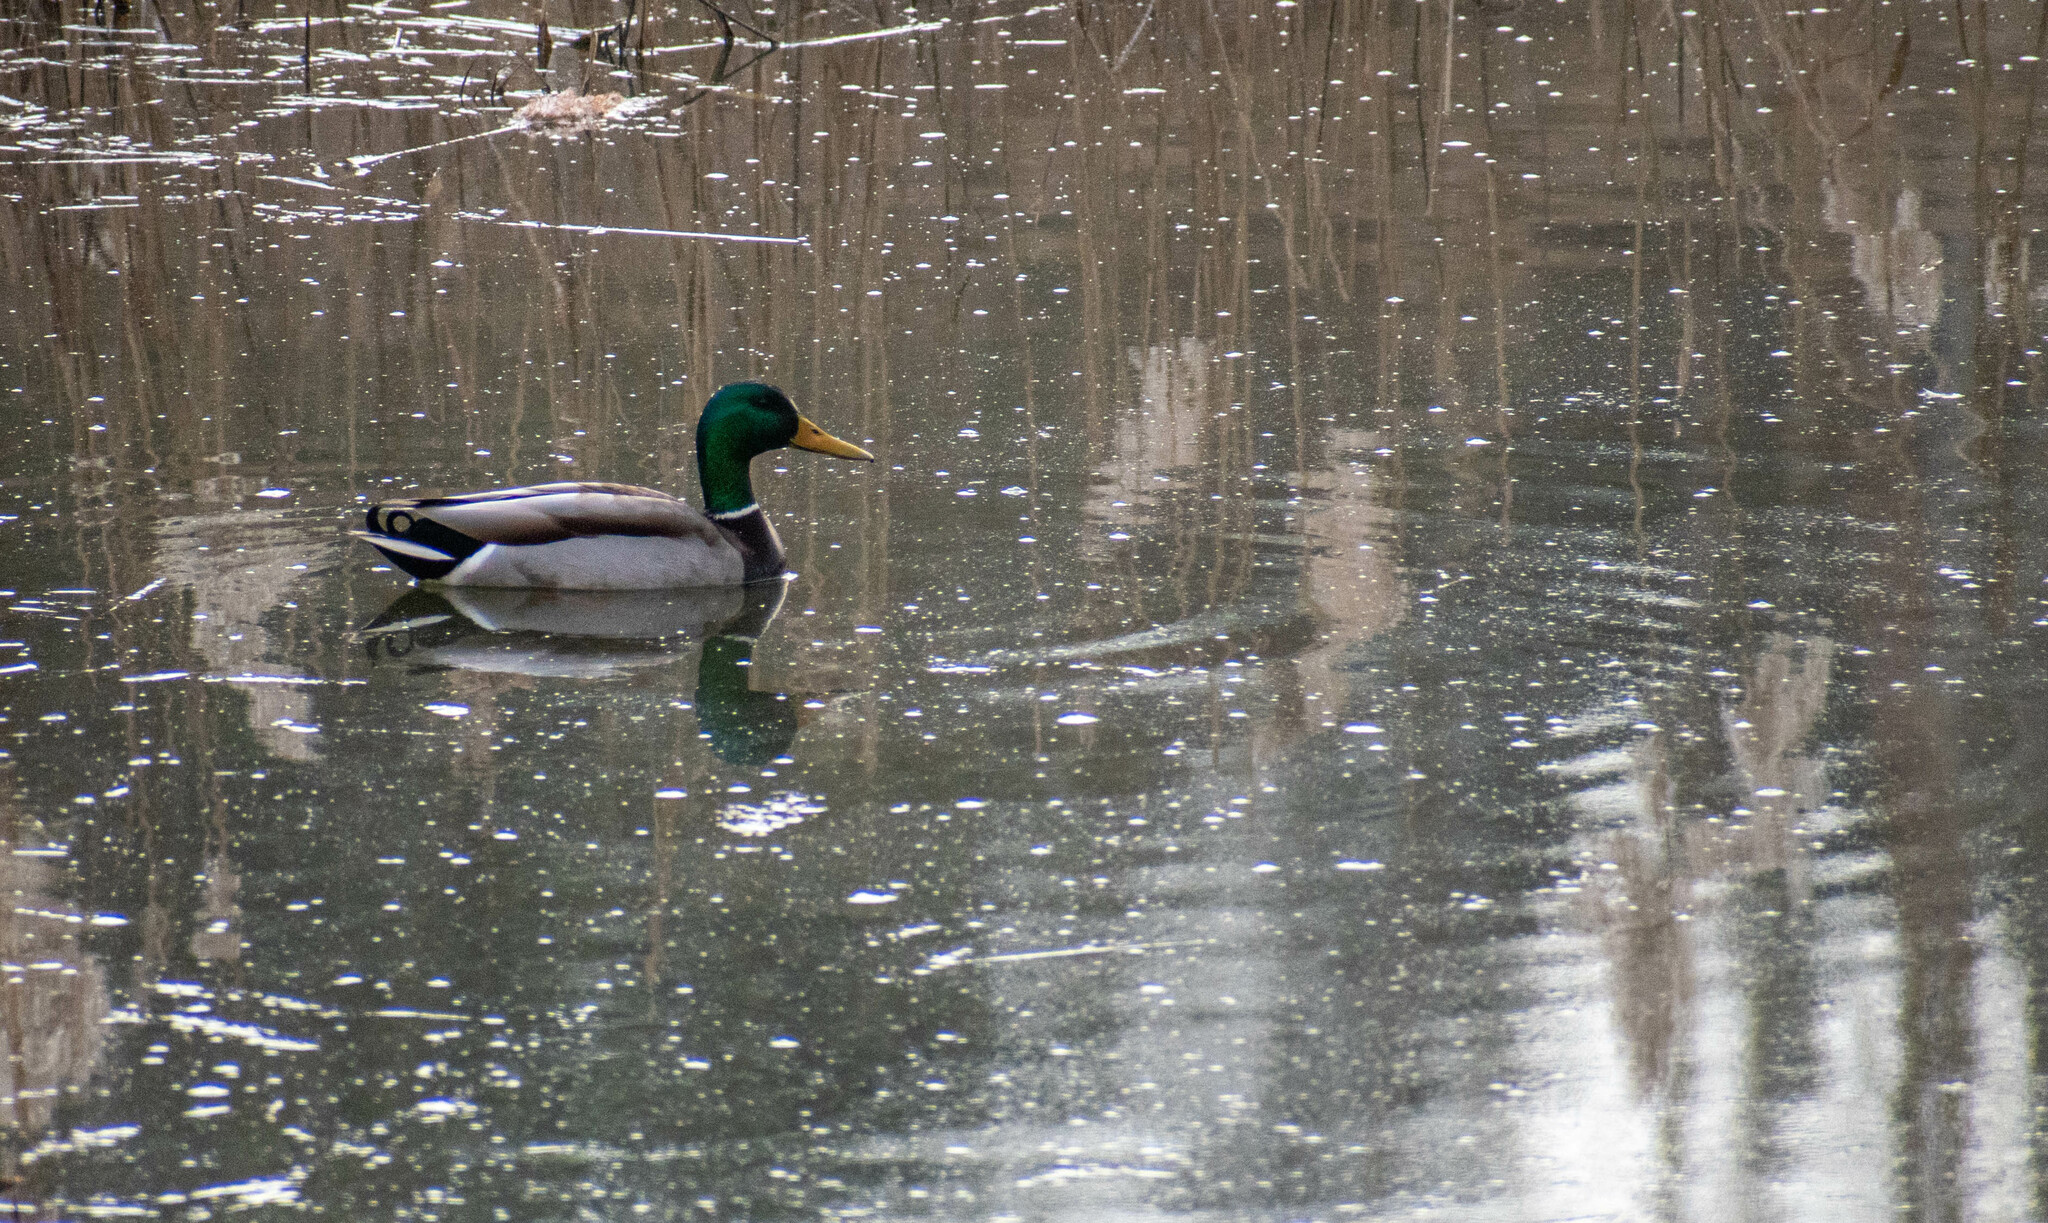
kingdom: Animalia
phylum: Chordata
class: Aves
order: Anseriformes
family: Anatidae
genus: Anas
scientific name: Anas platyrhynchos
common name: Mallard
